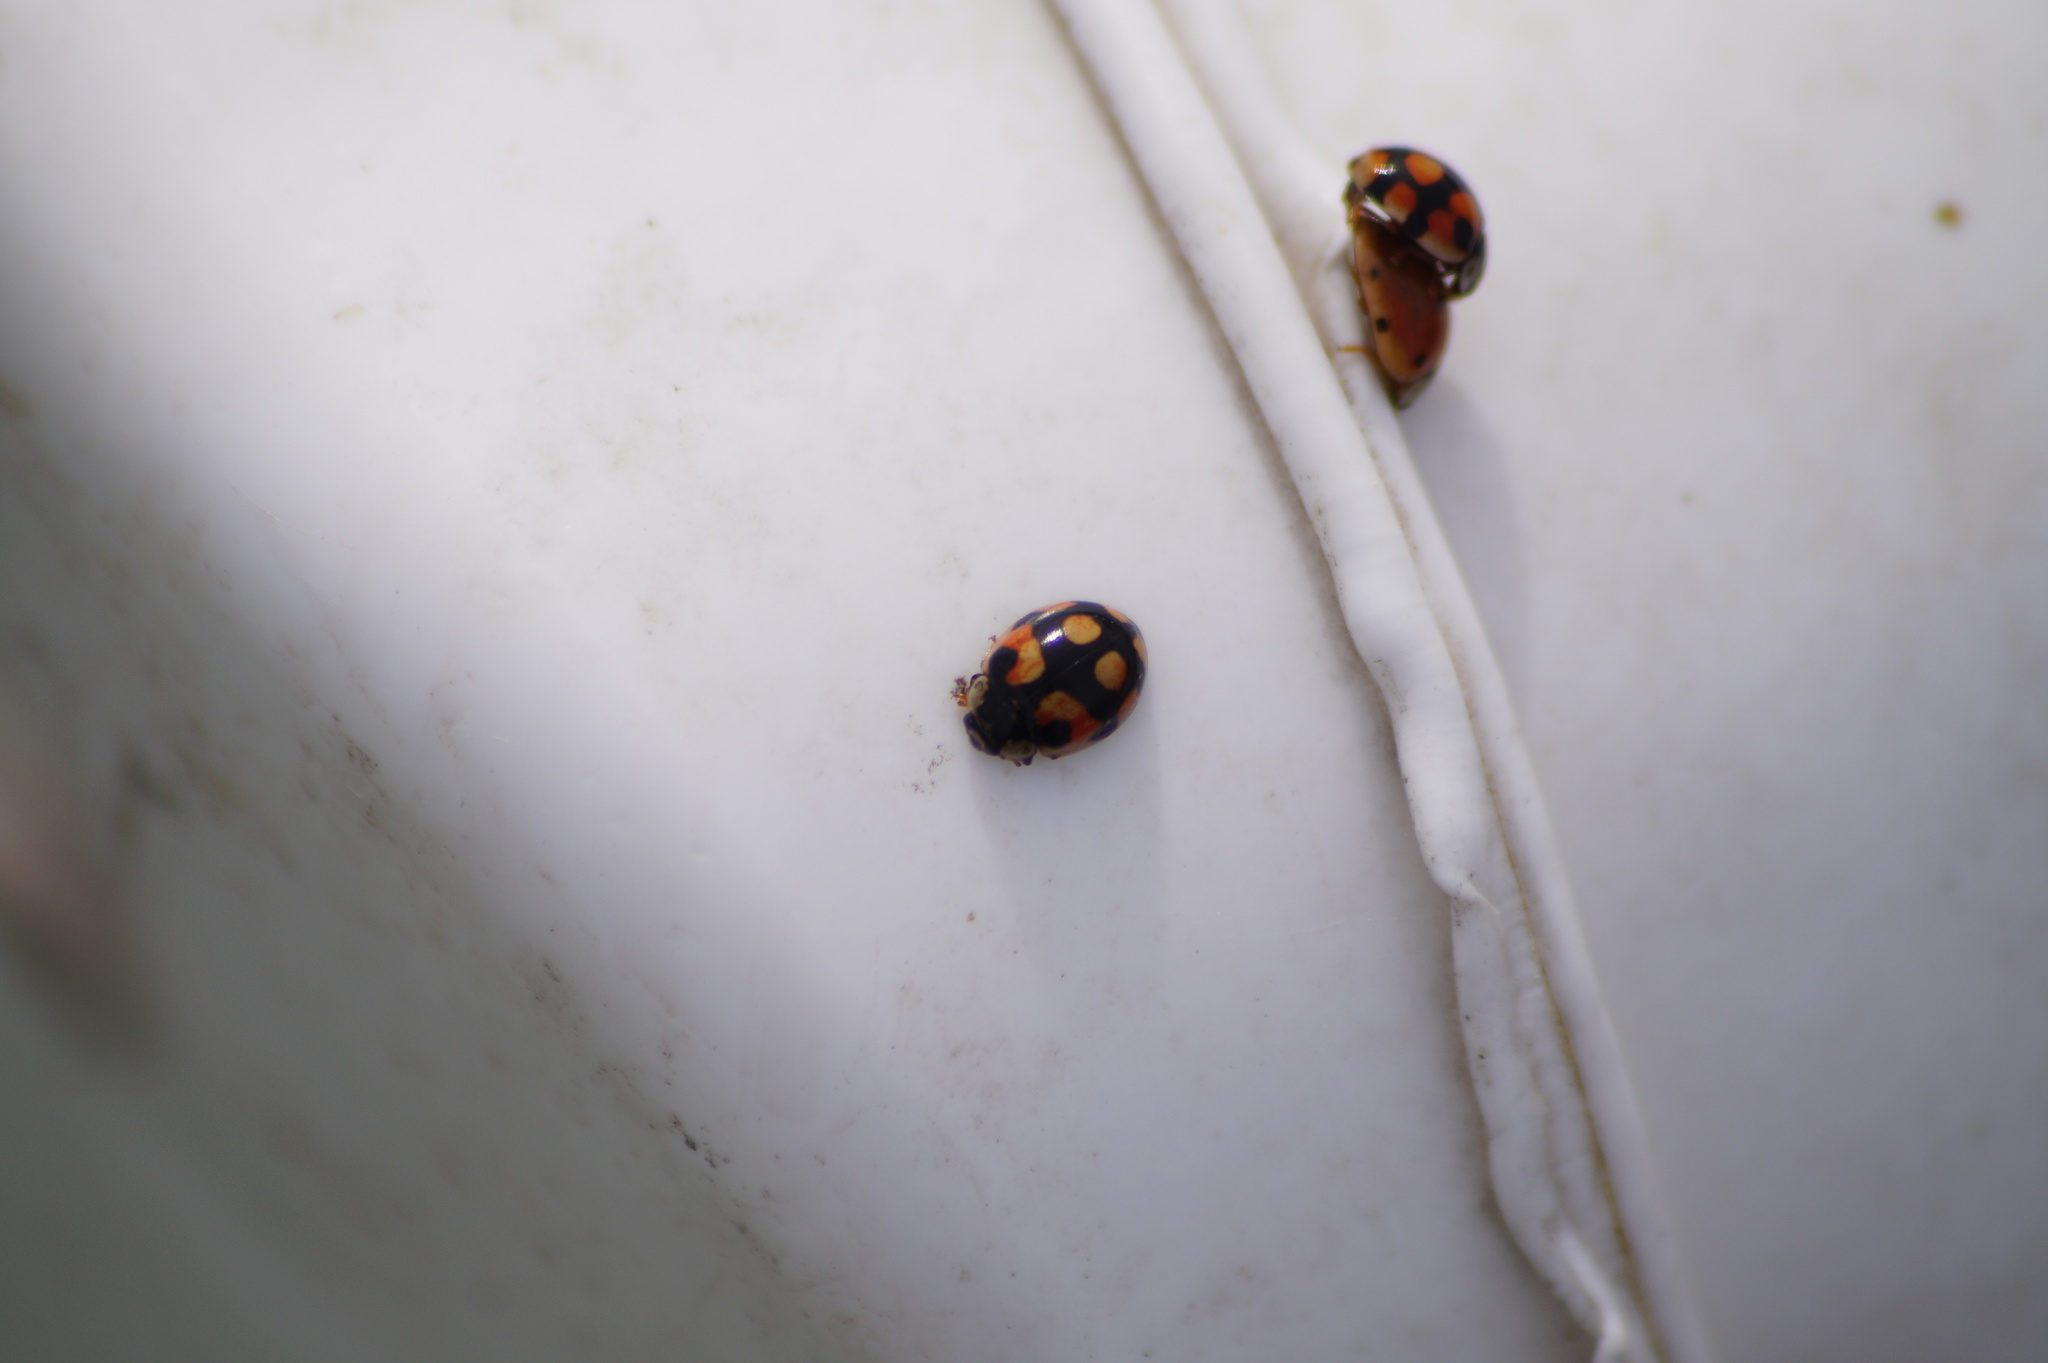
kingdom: Animalia
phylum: Arthropoda
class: Insecta
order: Coleoptera
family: Coccinellidae
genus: Adalia
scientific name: Adalia decempunctata
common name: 10-spot ladybird
